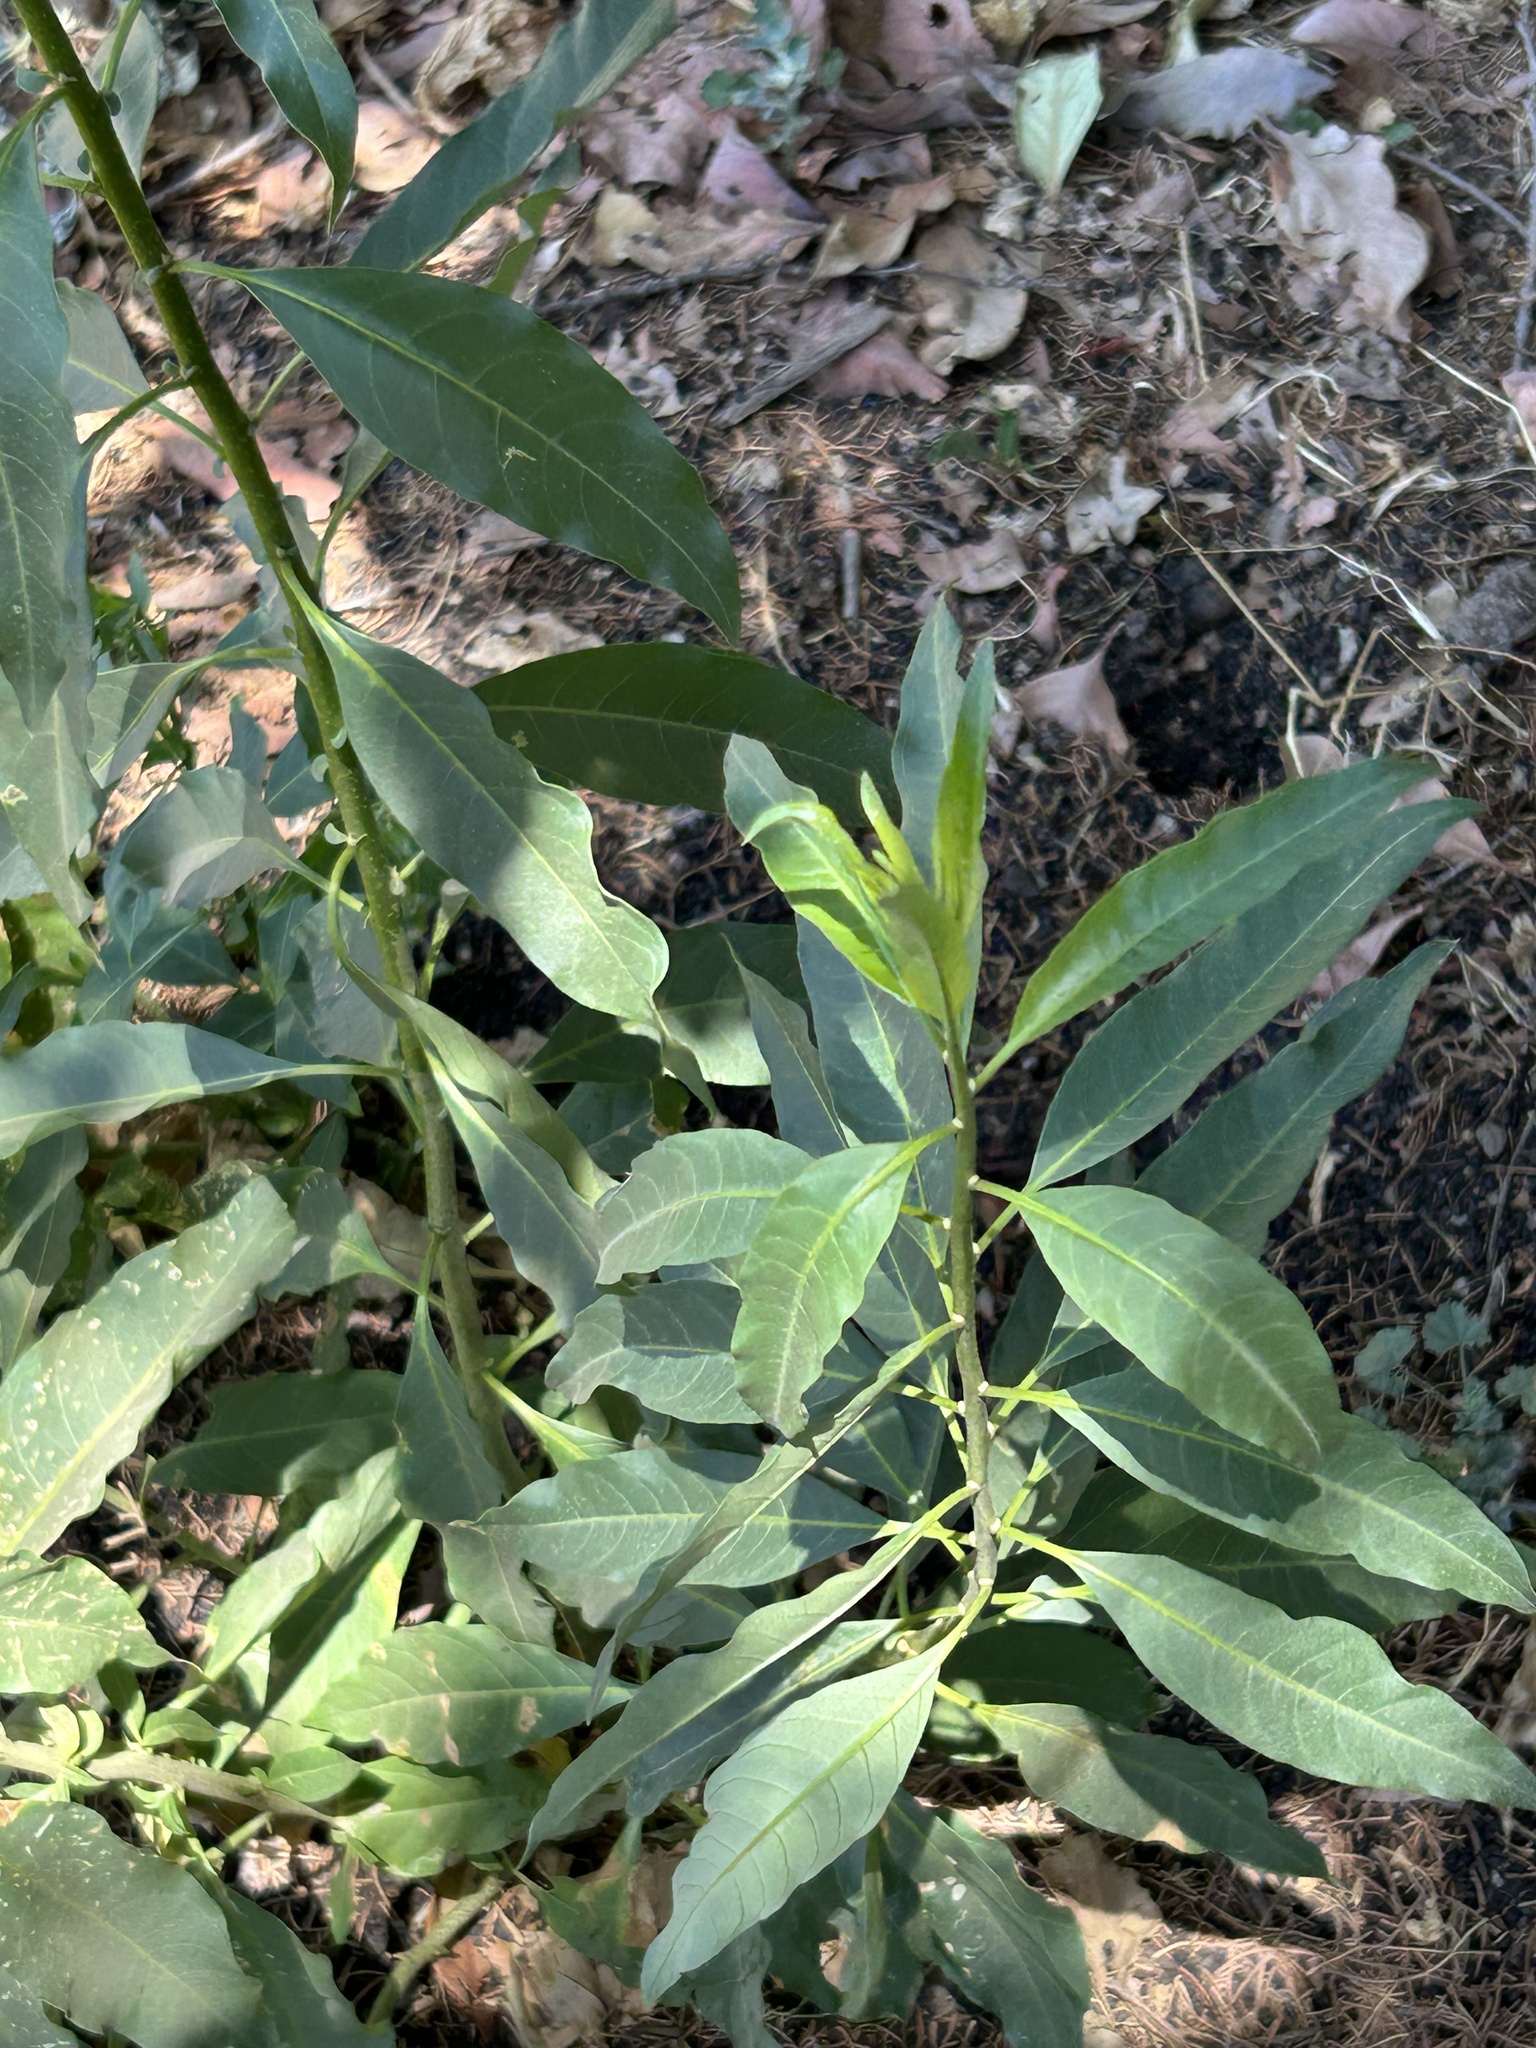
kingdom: Plantae
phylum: Tracheophyta
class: Magnoliopsida
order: Solanales
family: Solanaceae
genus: Cestrum
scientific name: Cestrum parqui
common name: Chilean cestrum
